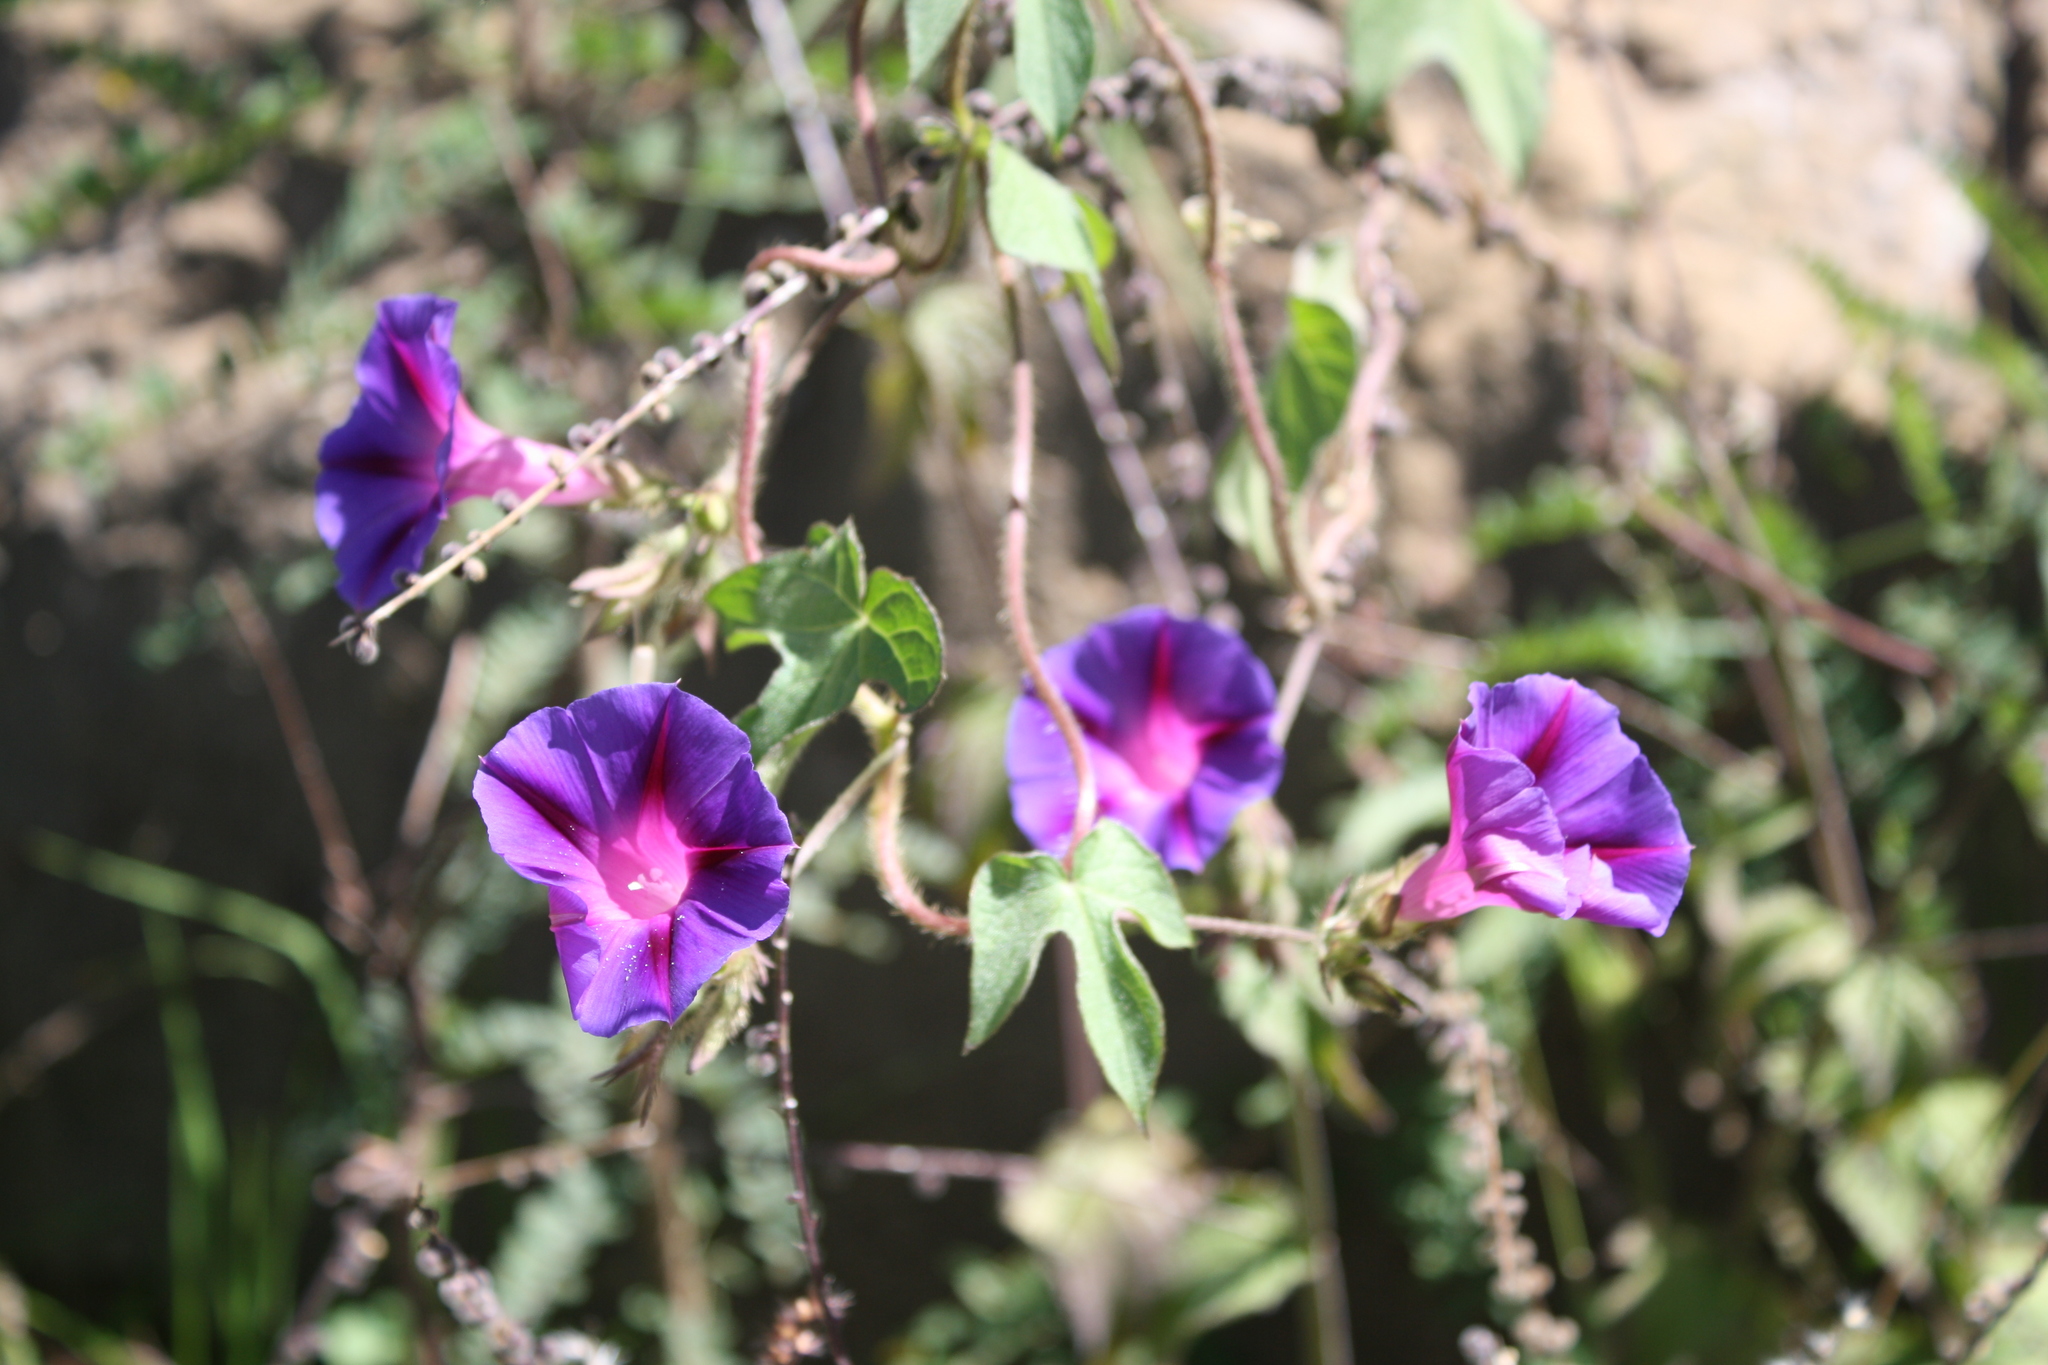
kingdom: Plantae
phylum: Tracheophyta
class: Magnoliopsida
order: Solanales
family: Convolvulaceae
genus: Ipomoea
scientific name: Ipomoea purpurea
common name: Common morning-glory
